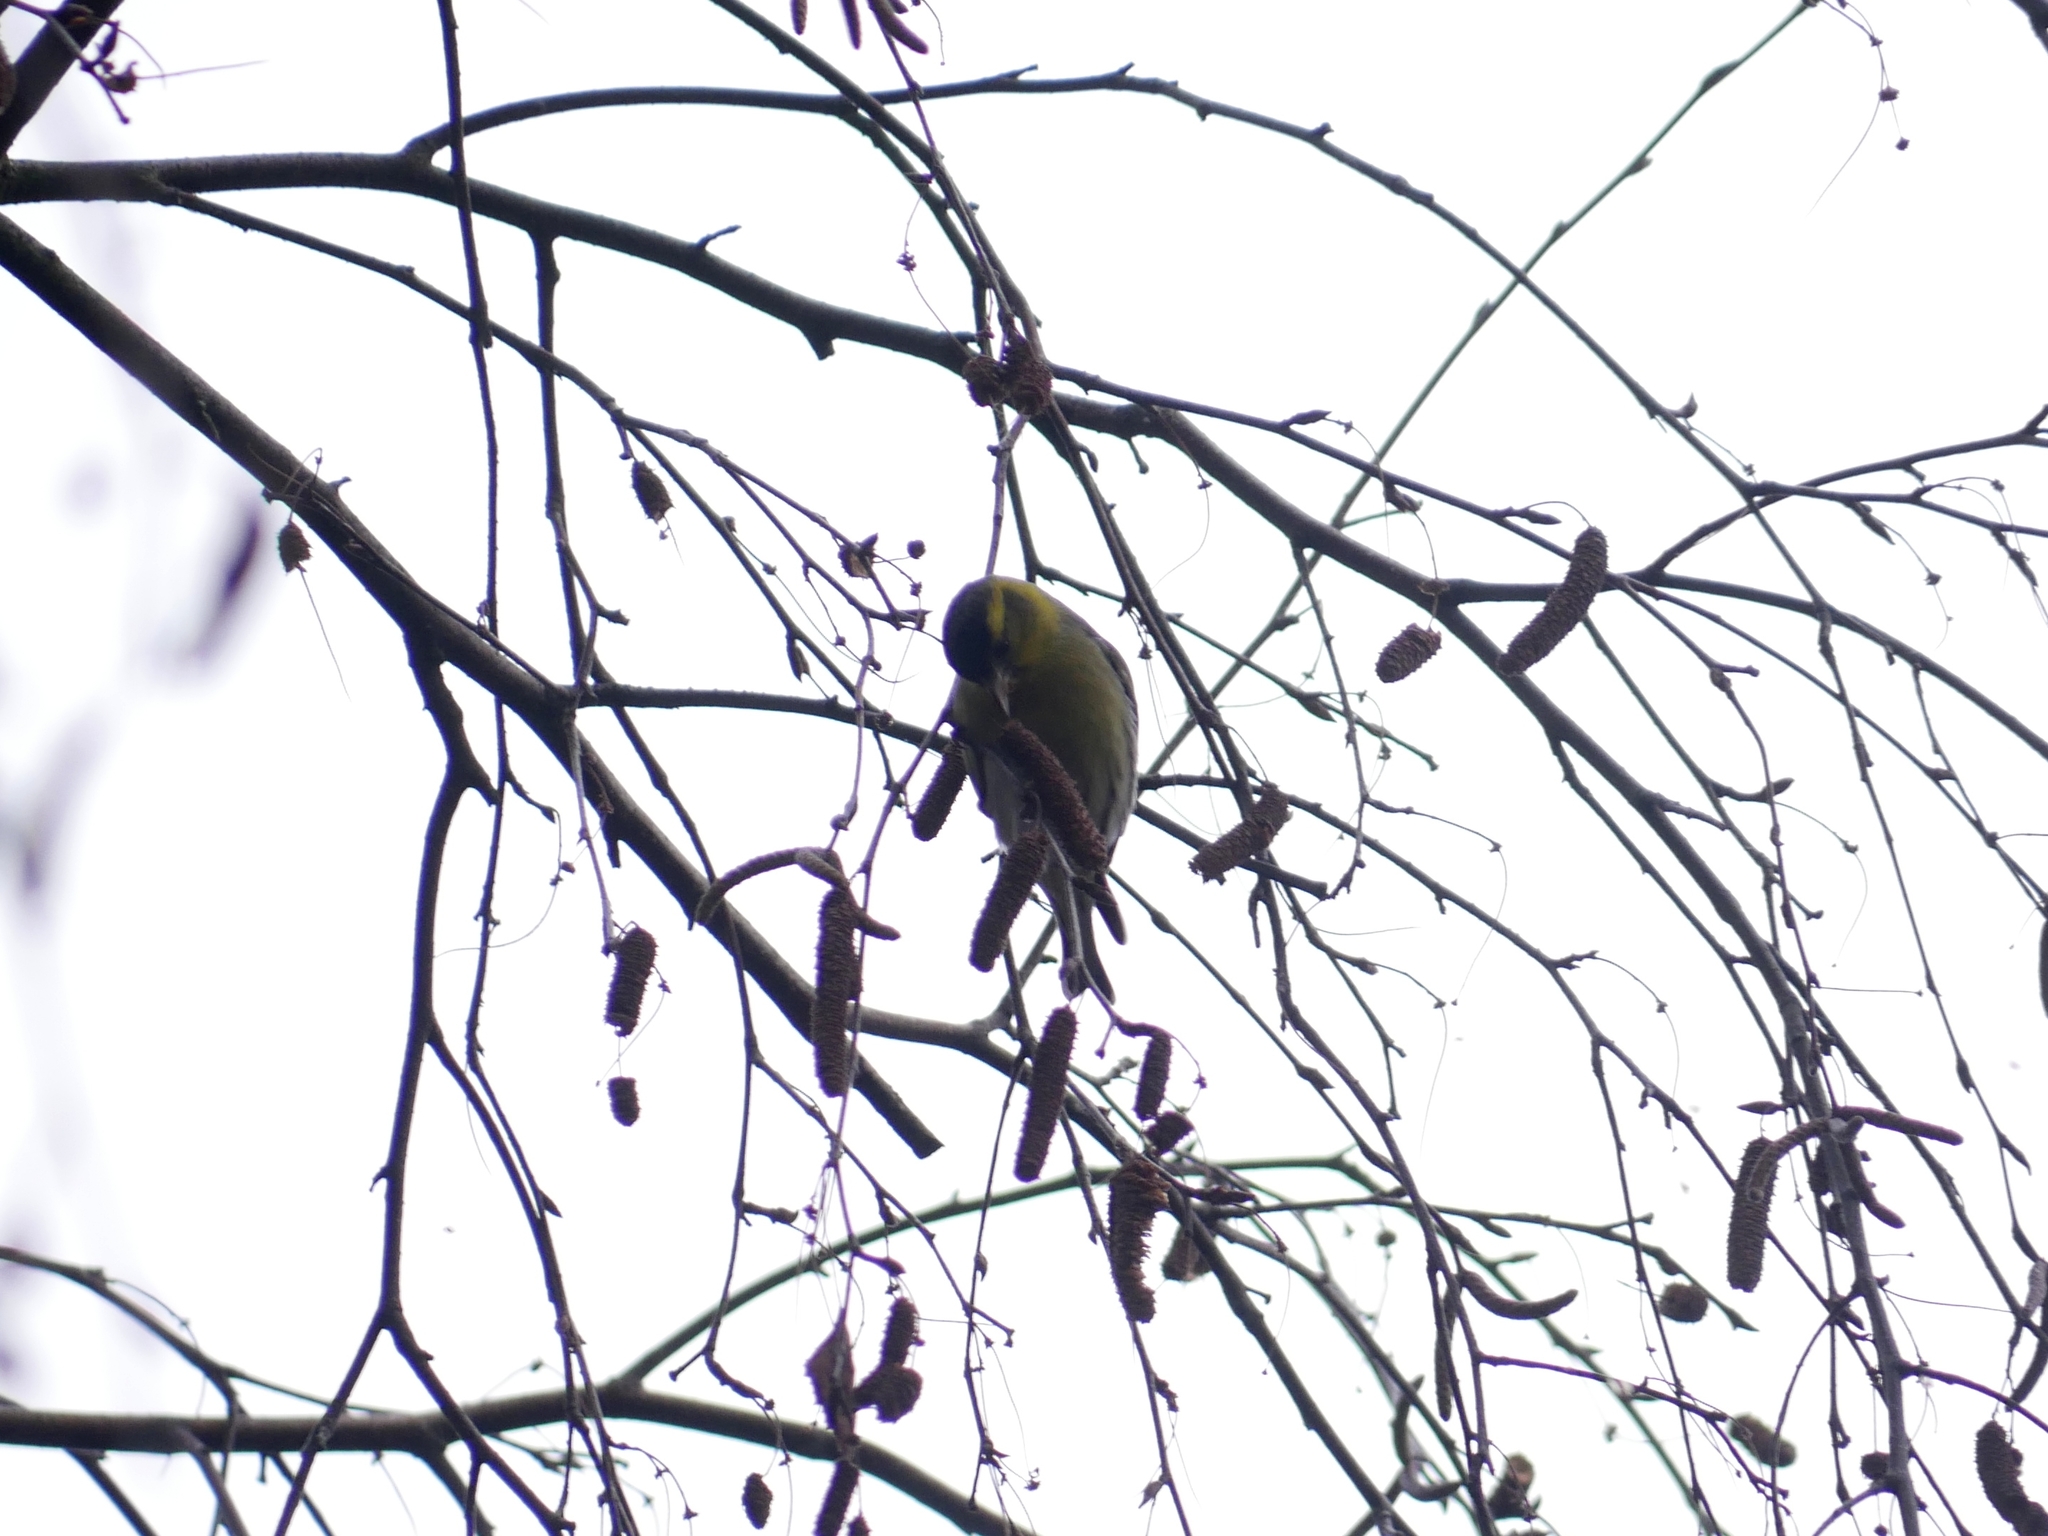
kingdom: Animalia
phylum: Chordata
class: Aves
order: Passeriformes
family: Fringillidae
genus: Spinus
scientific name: Spinus spinus
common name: Eurasian siskin
